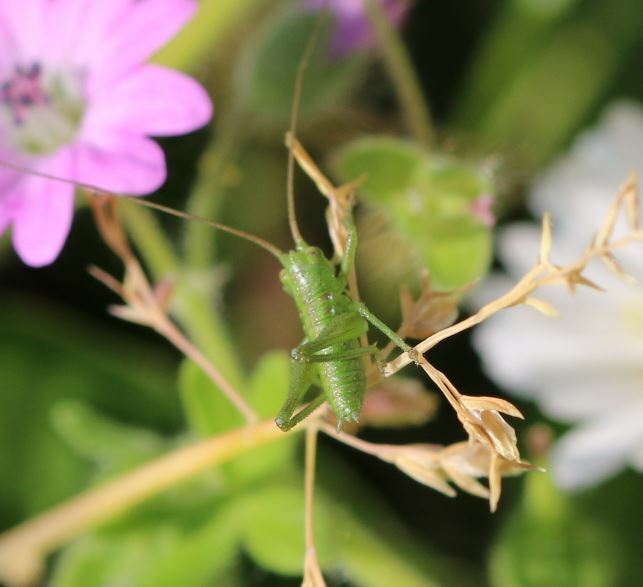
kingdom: Animalia
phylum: Arthropoda
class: Insecta
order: Orthoptera
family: Tettigoniidae
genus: Tettigonia
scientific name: Tettigonia viridissima
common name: Great green bush-cricket
